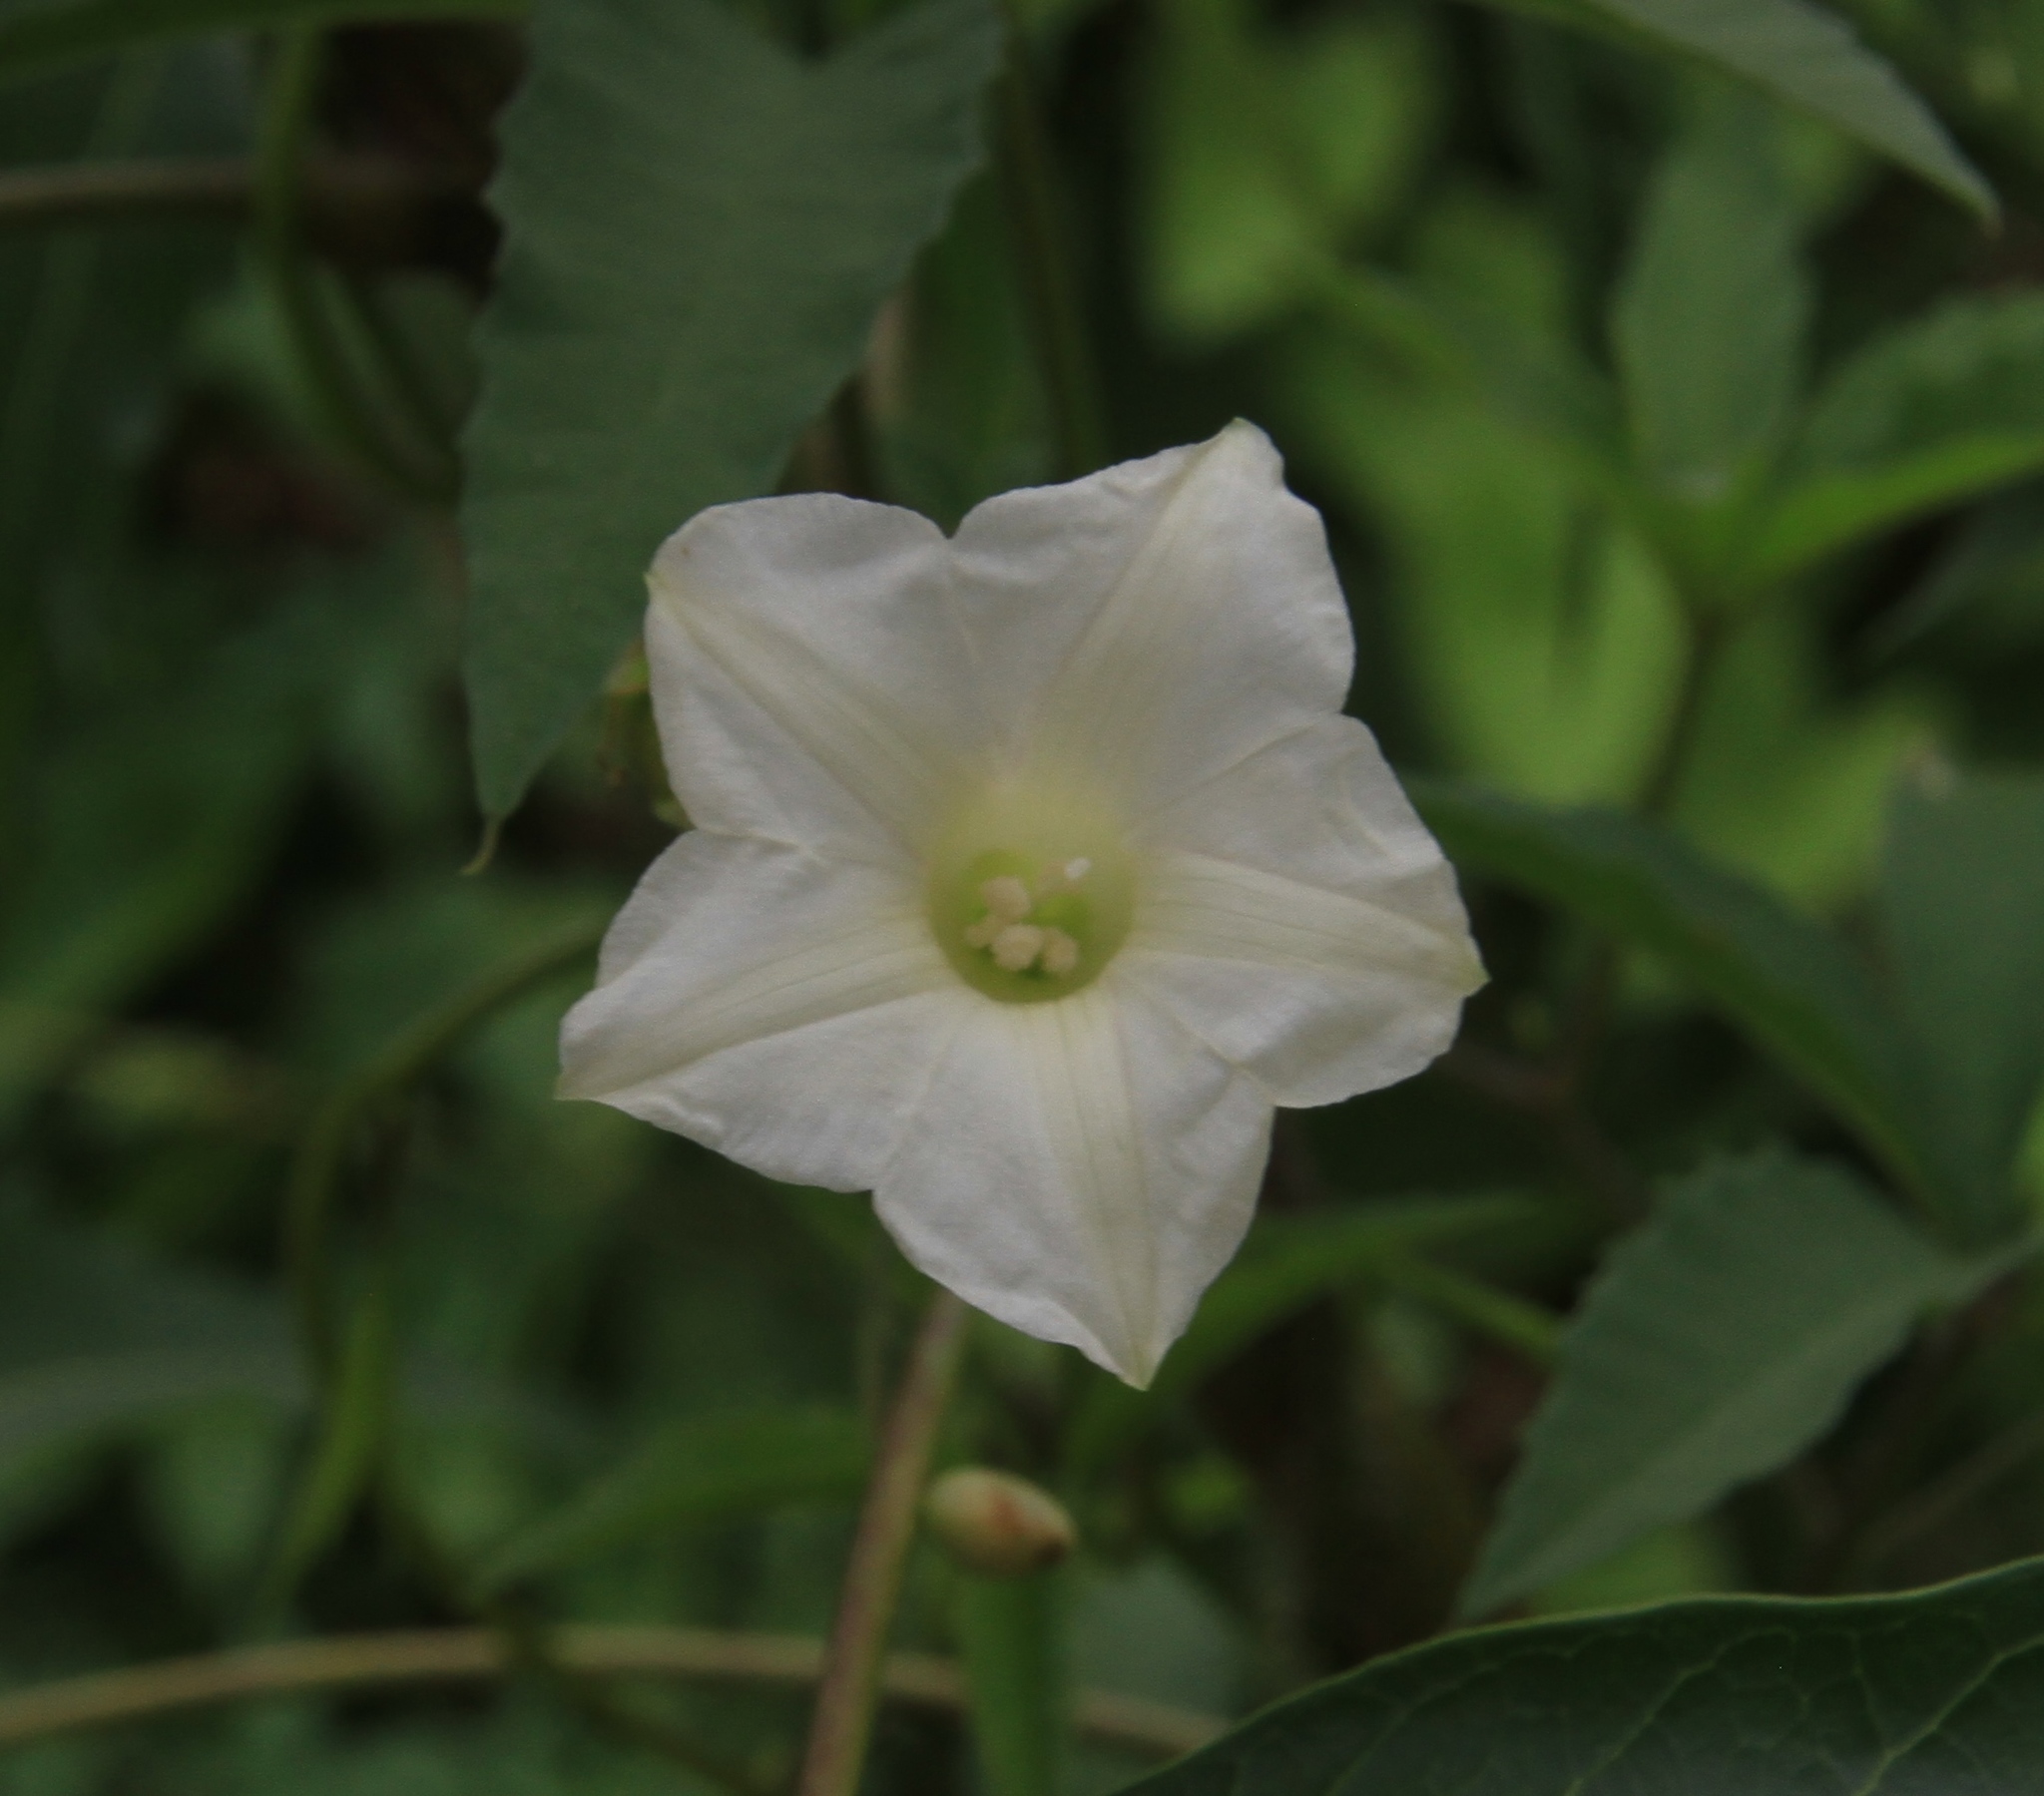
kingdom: Plantae
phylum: Tracheophyta
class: Magnoliopsida
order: Solanales
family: Convolvulaceae
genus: Distimake
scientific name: Distimake quinquefolius
